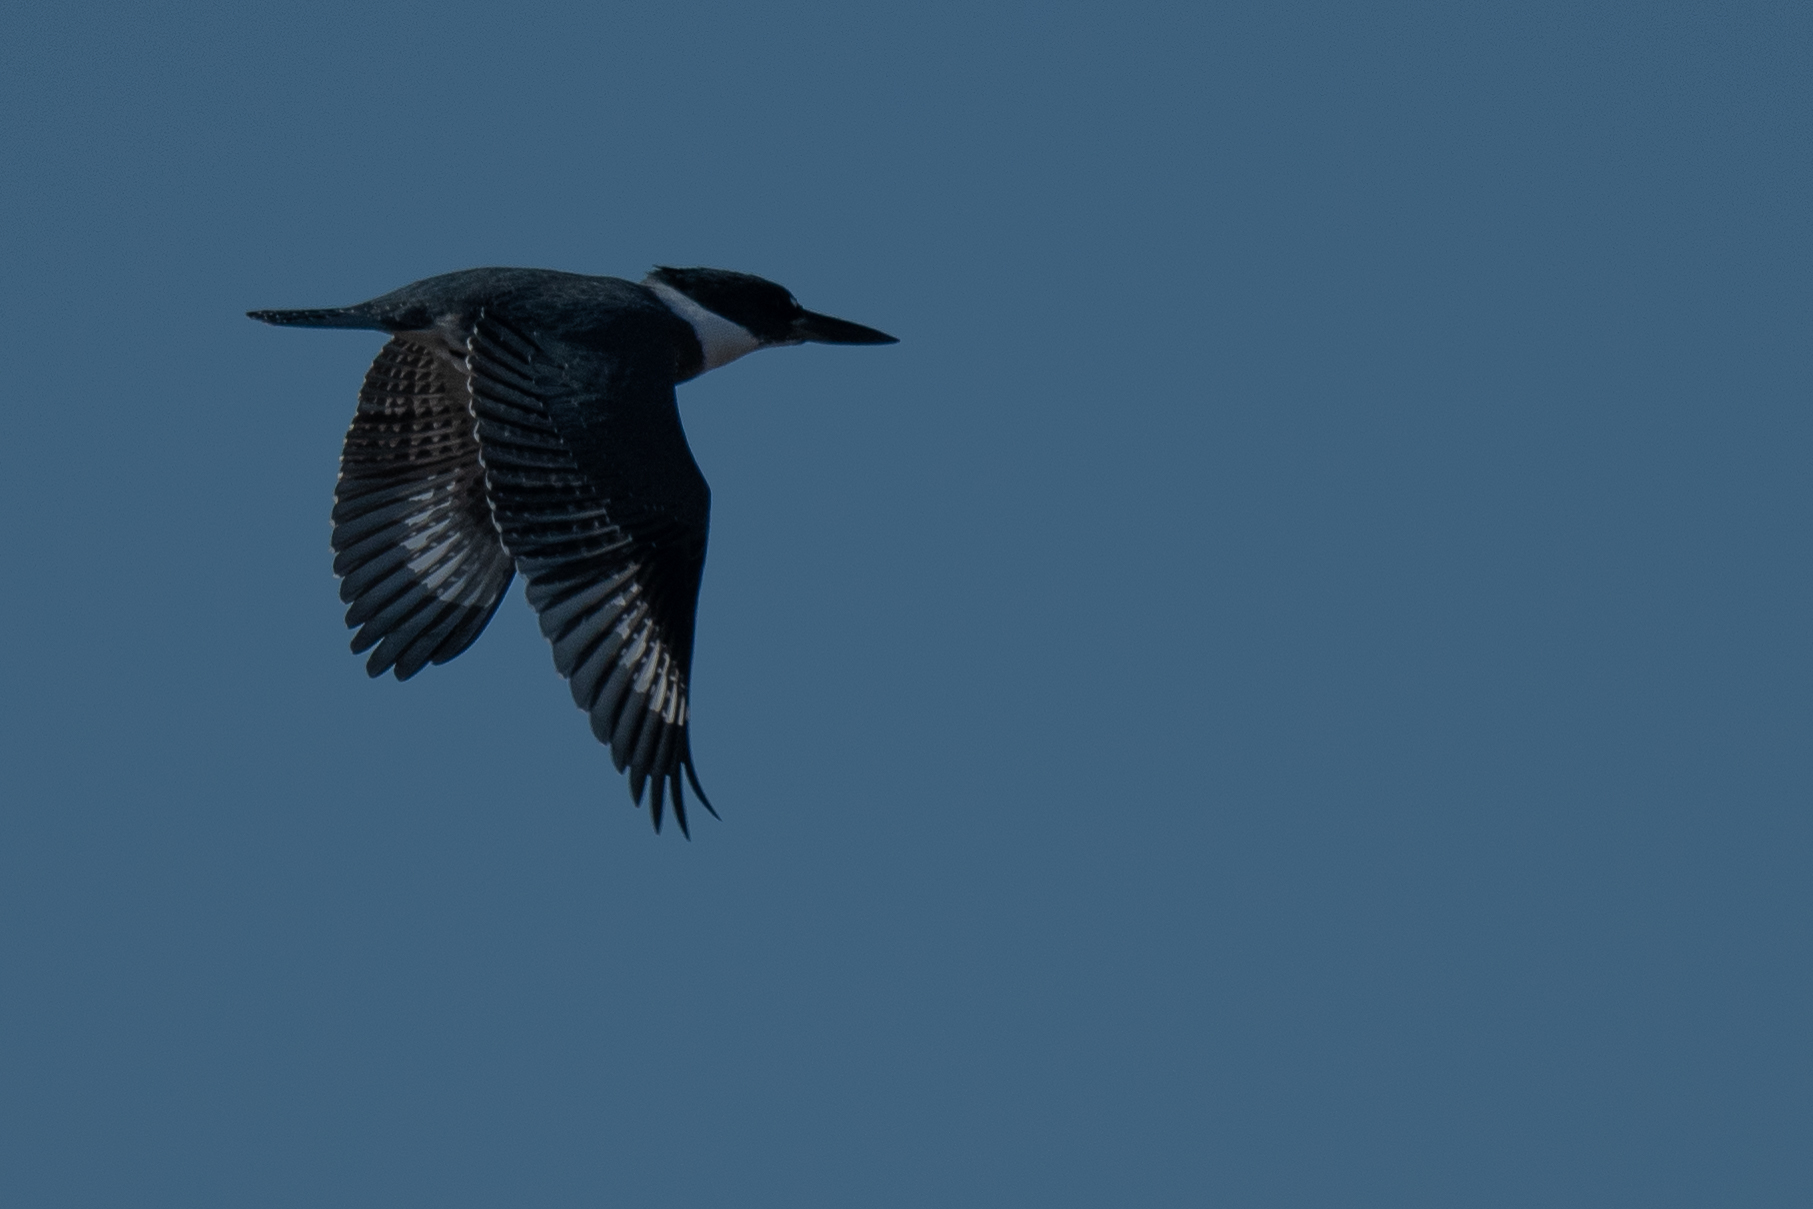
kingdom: Animalia
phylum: Chordata
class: Aves
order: Coraciiformes
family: Alcedinidae
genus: Megaceryle
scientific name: Megaceryle alcyon
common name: Belted kingfisher
